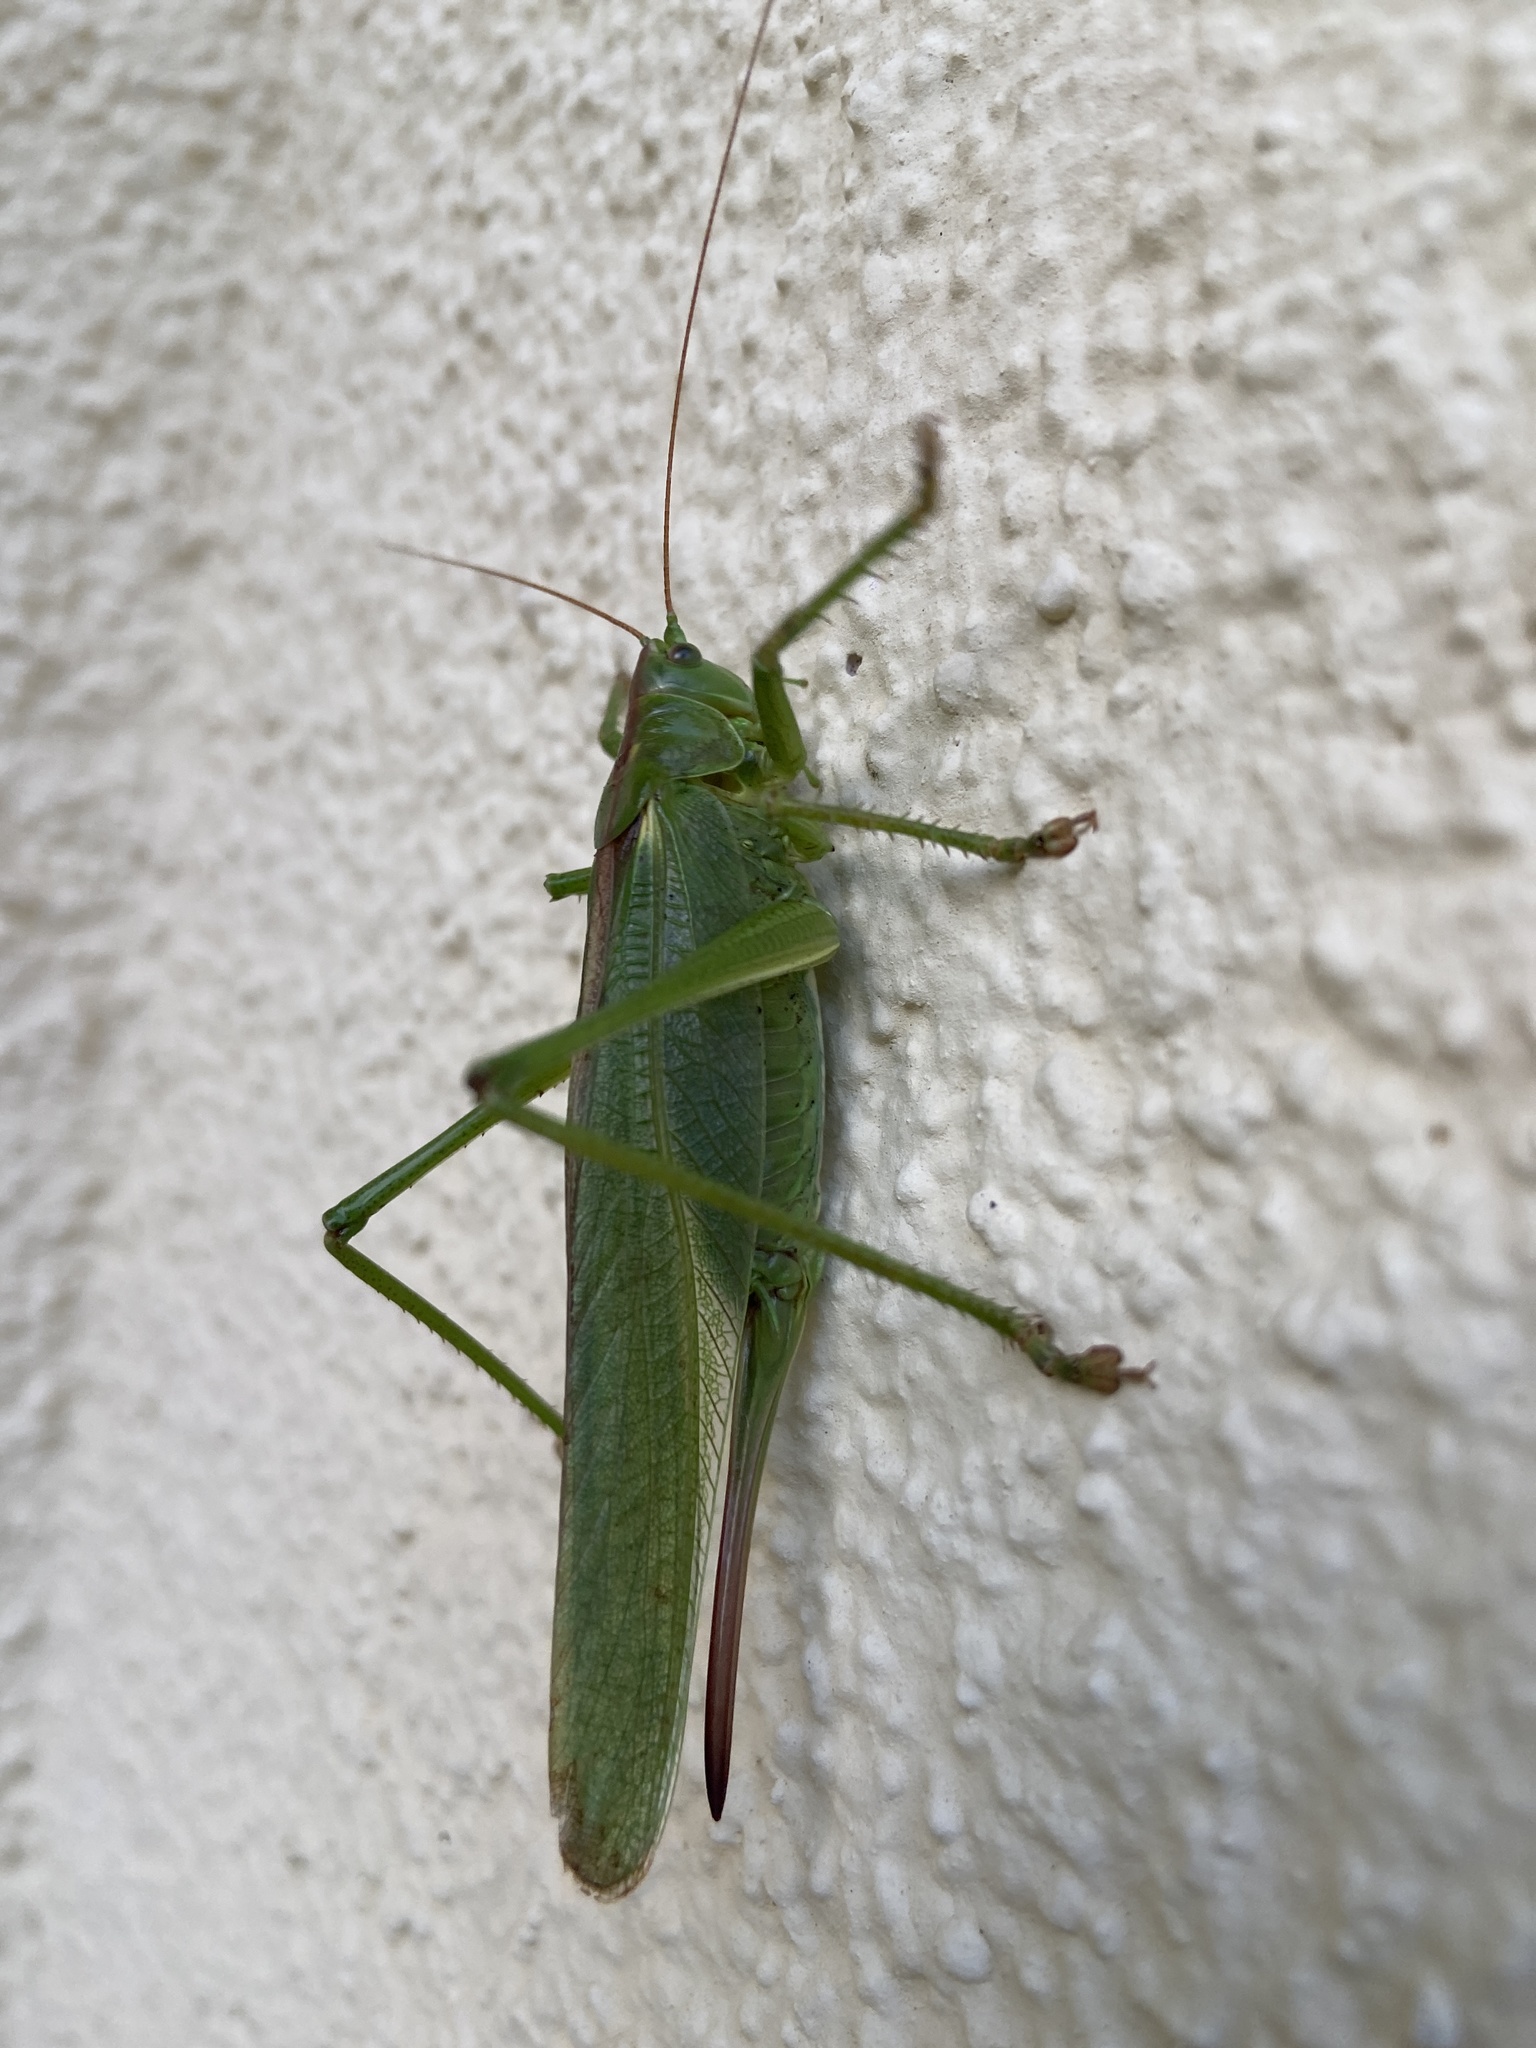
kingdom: Animalia
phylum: Arthropoda
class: Insecta
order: Orthoptera
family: Tettigoniidae
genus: Tettigonia
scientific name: Tettigonia viridissima
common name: Great green bush-cricket
